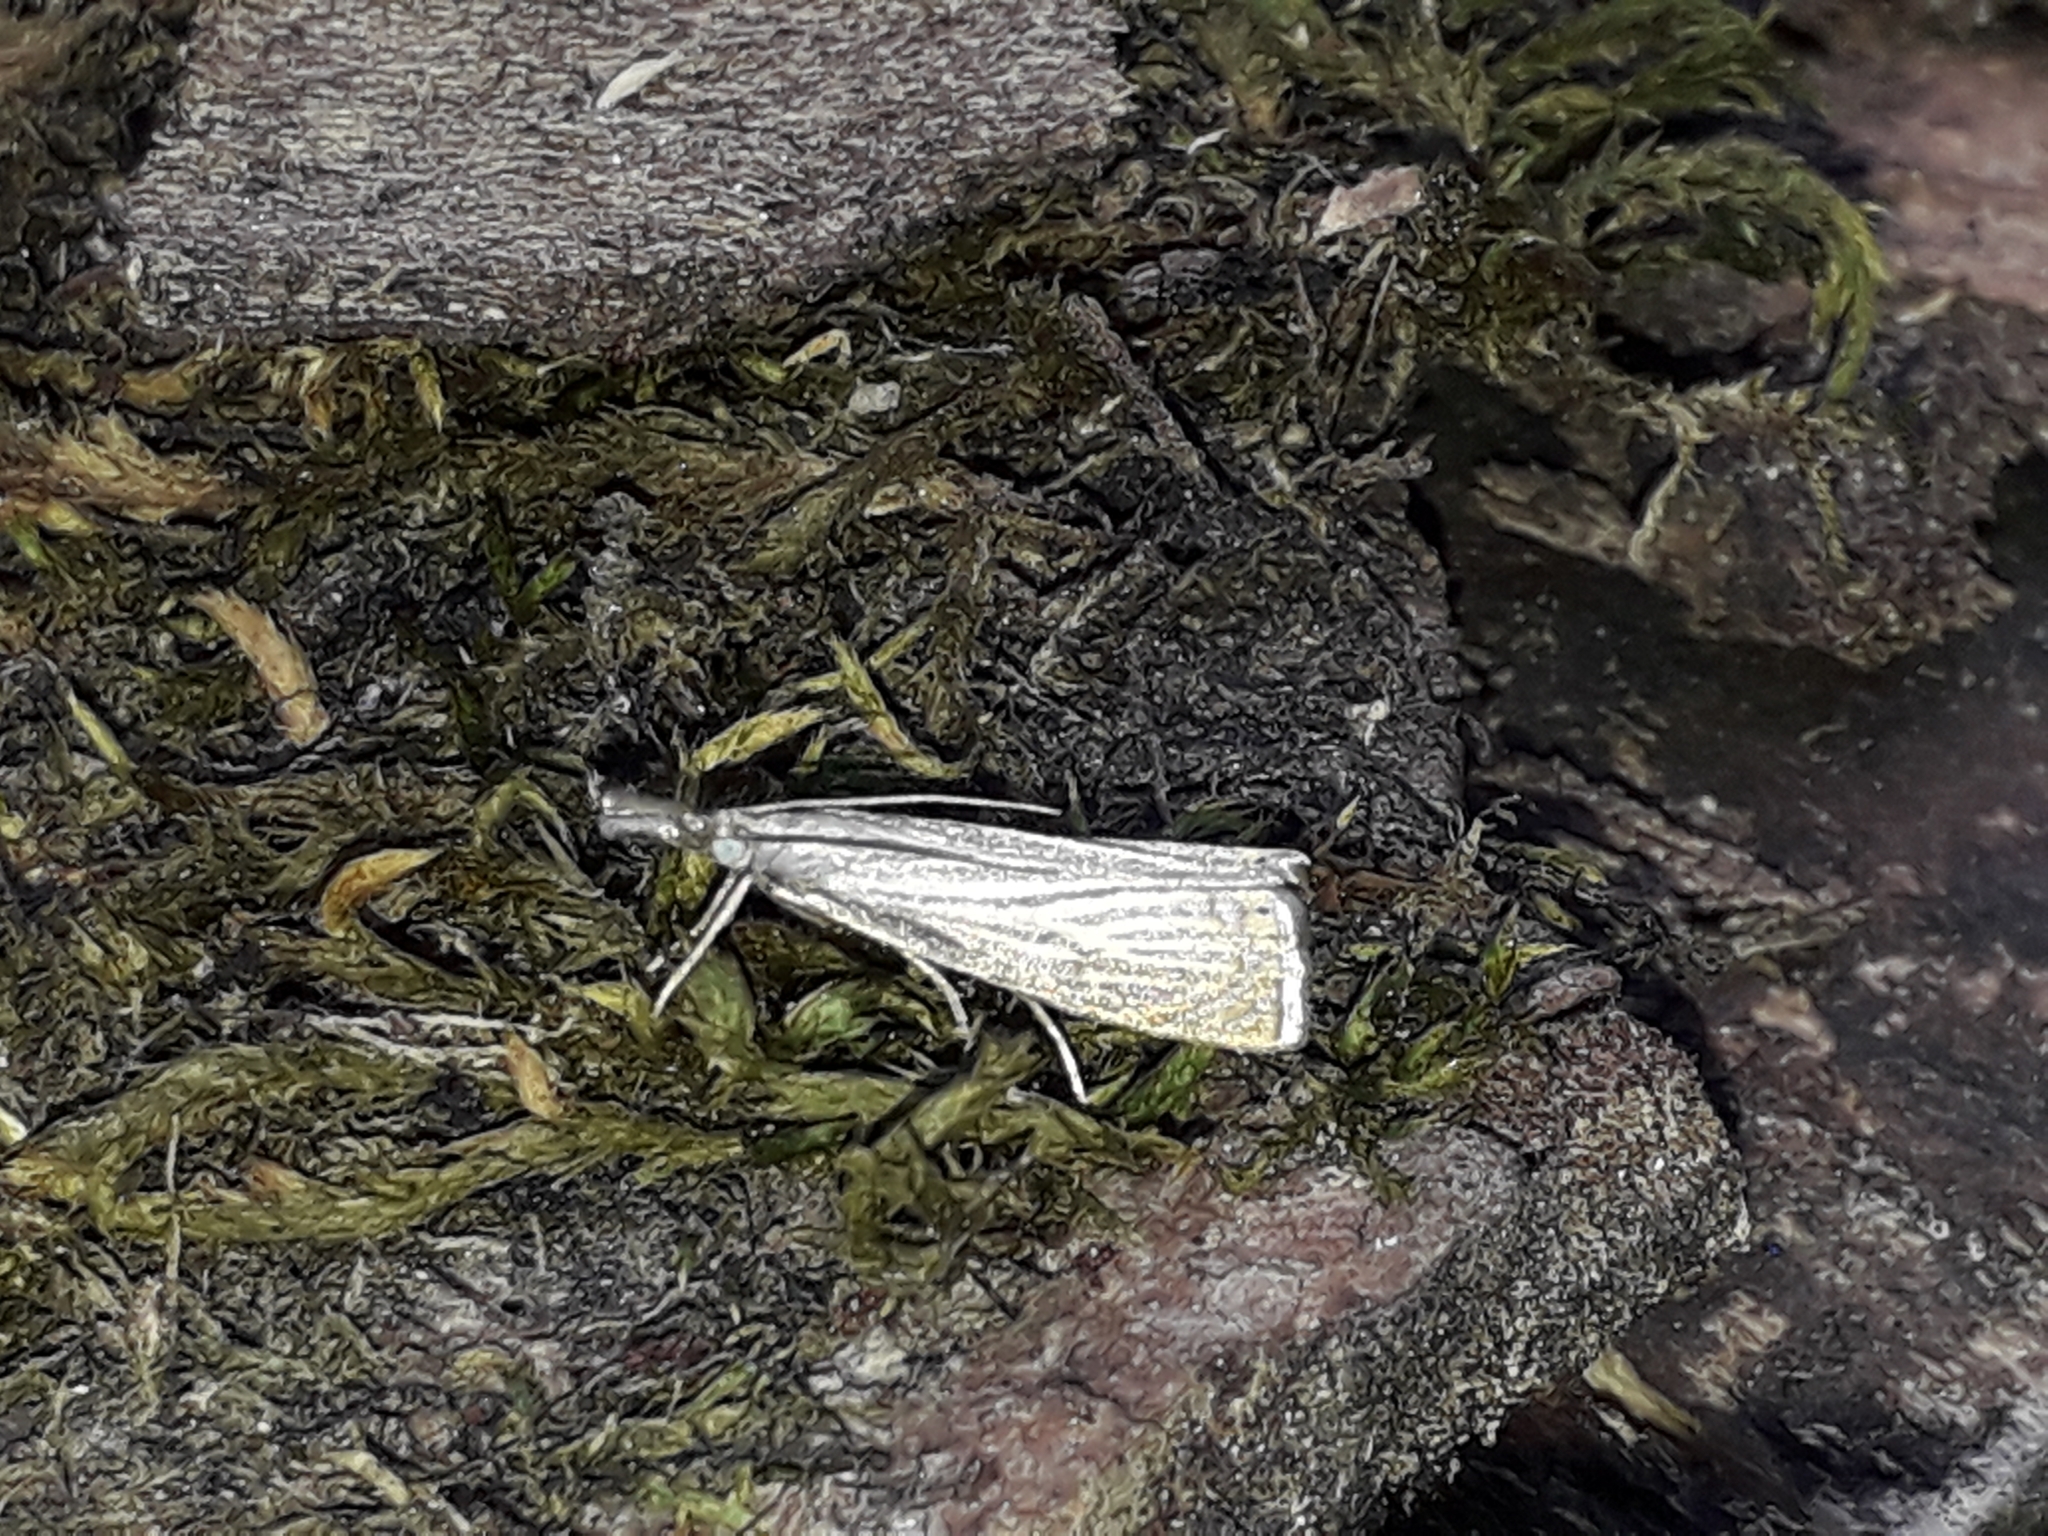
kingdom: Animalia
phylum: Arthropoda
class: Insecta
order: Lepidoptera
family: Crambidae
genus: Chrysoteuchia
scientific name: Chrysoteuchia culmella
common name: Garden grass-veneer
